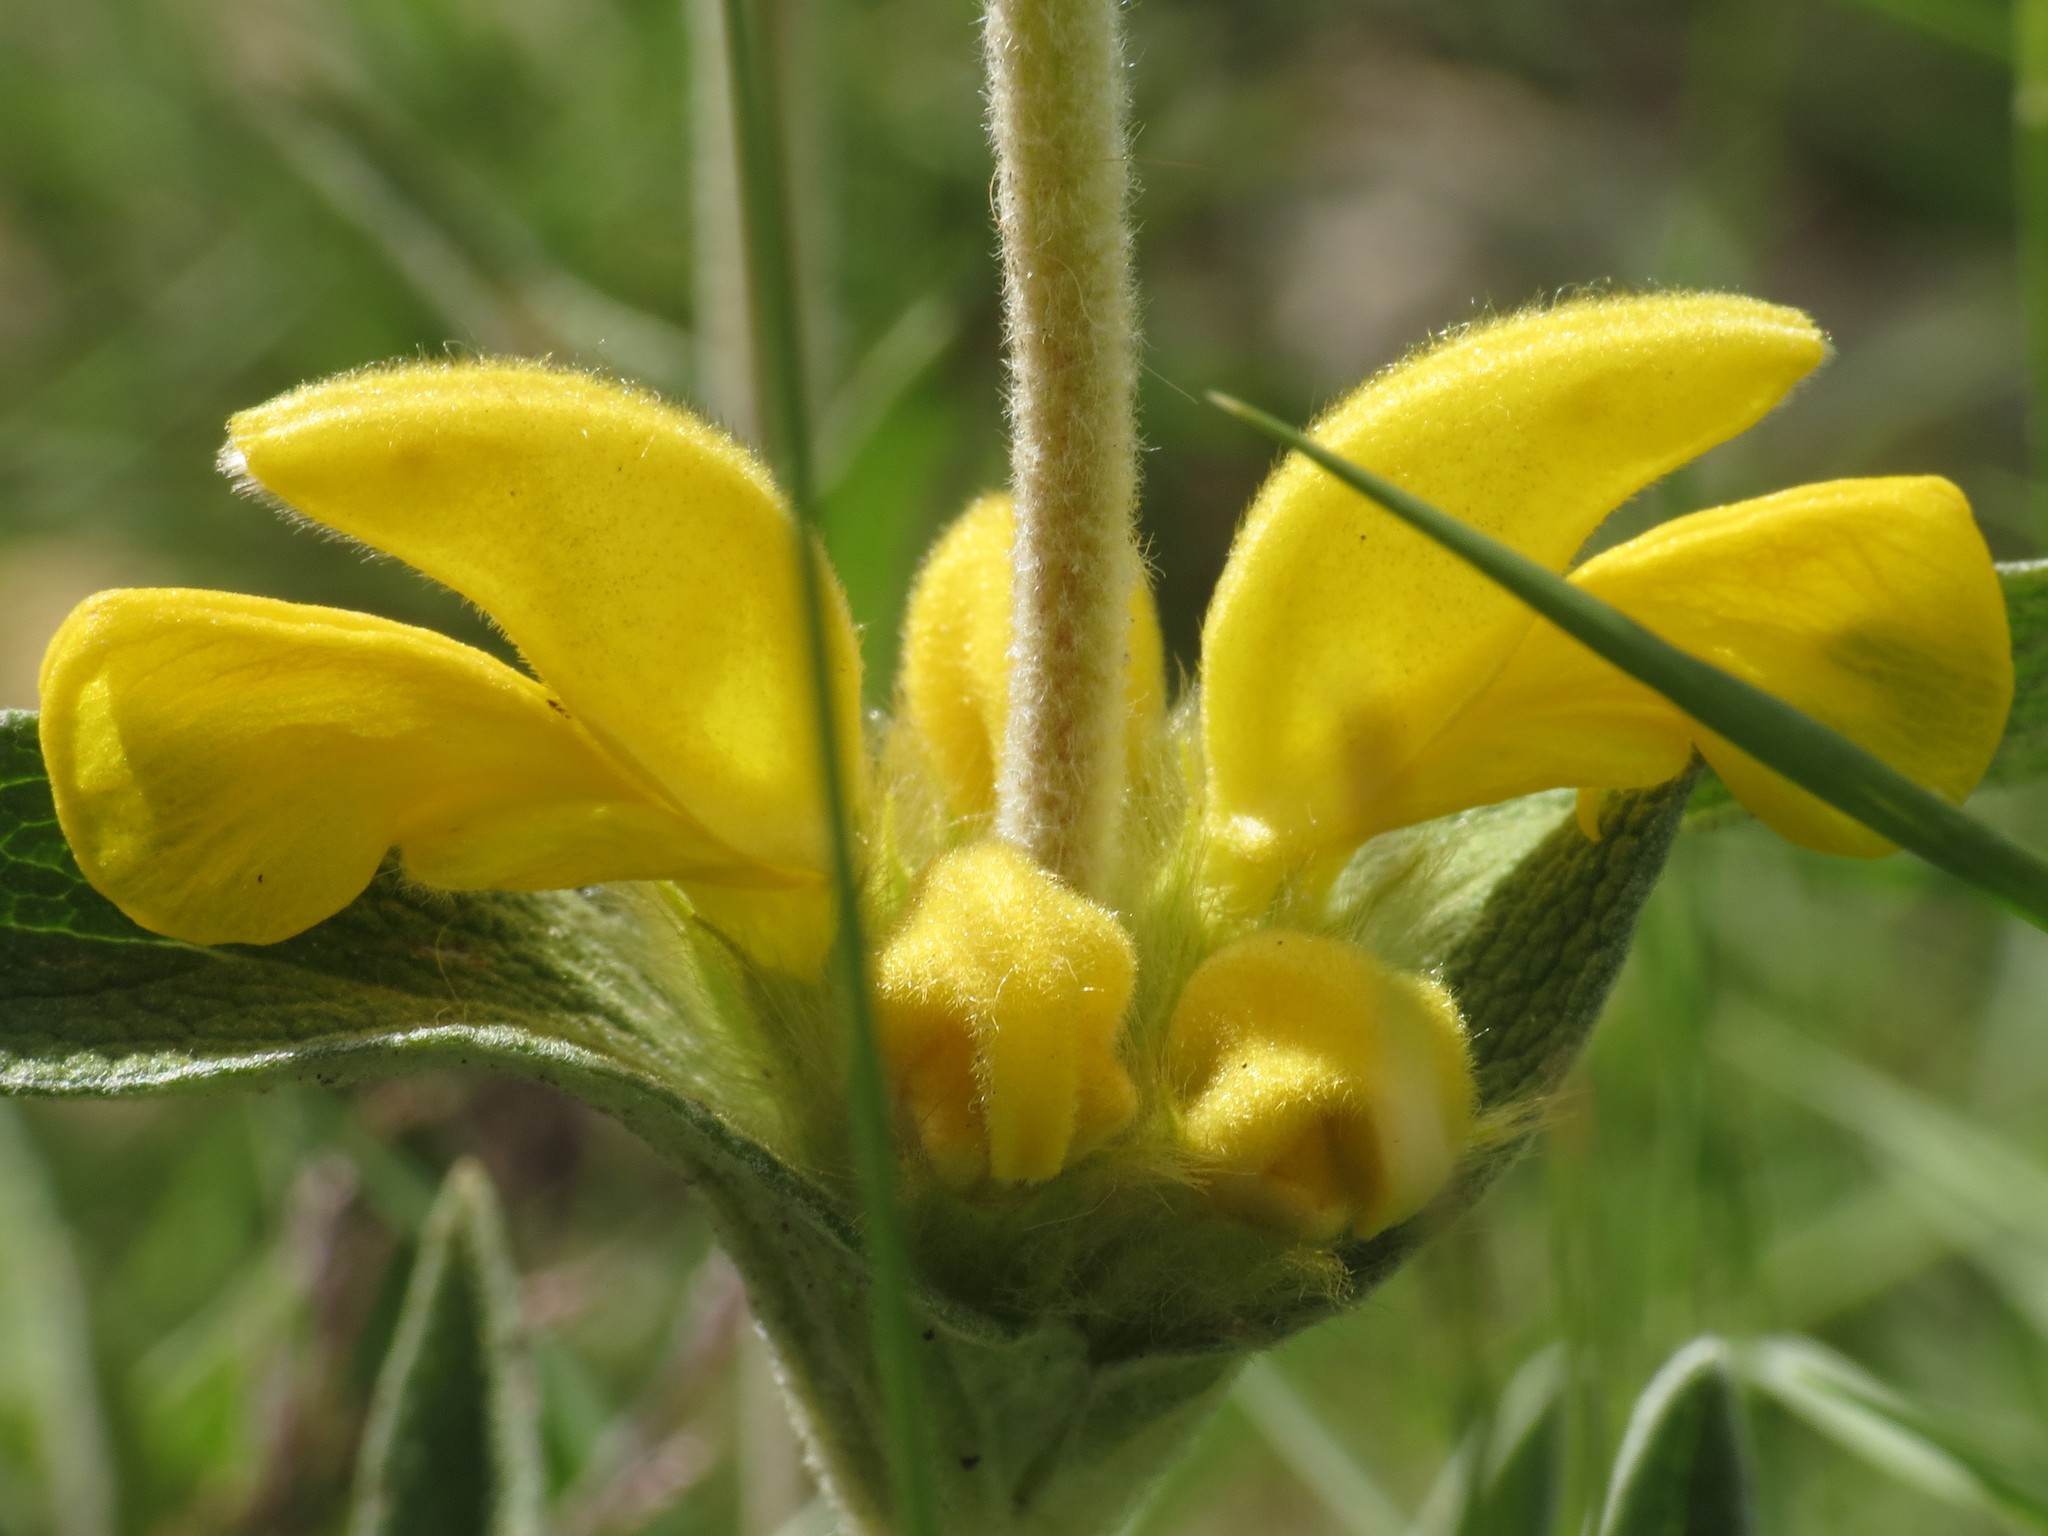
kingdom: Plantae
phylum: Tracheophyta
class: Magnoliopsida
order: Lamiales
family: Lamiaceae
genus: Phlomis
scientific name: Phlomis lychnitis
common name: Lampwickplant
